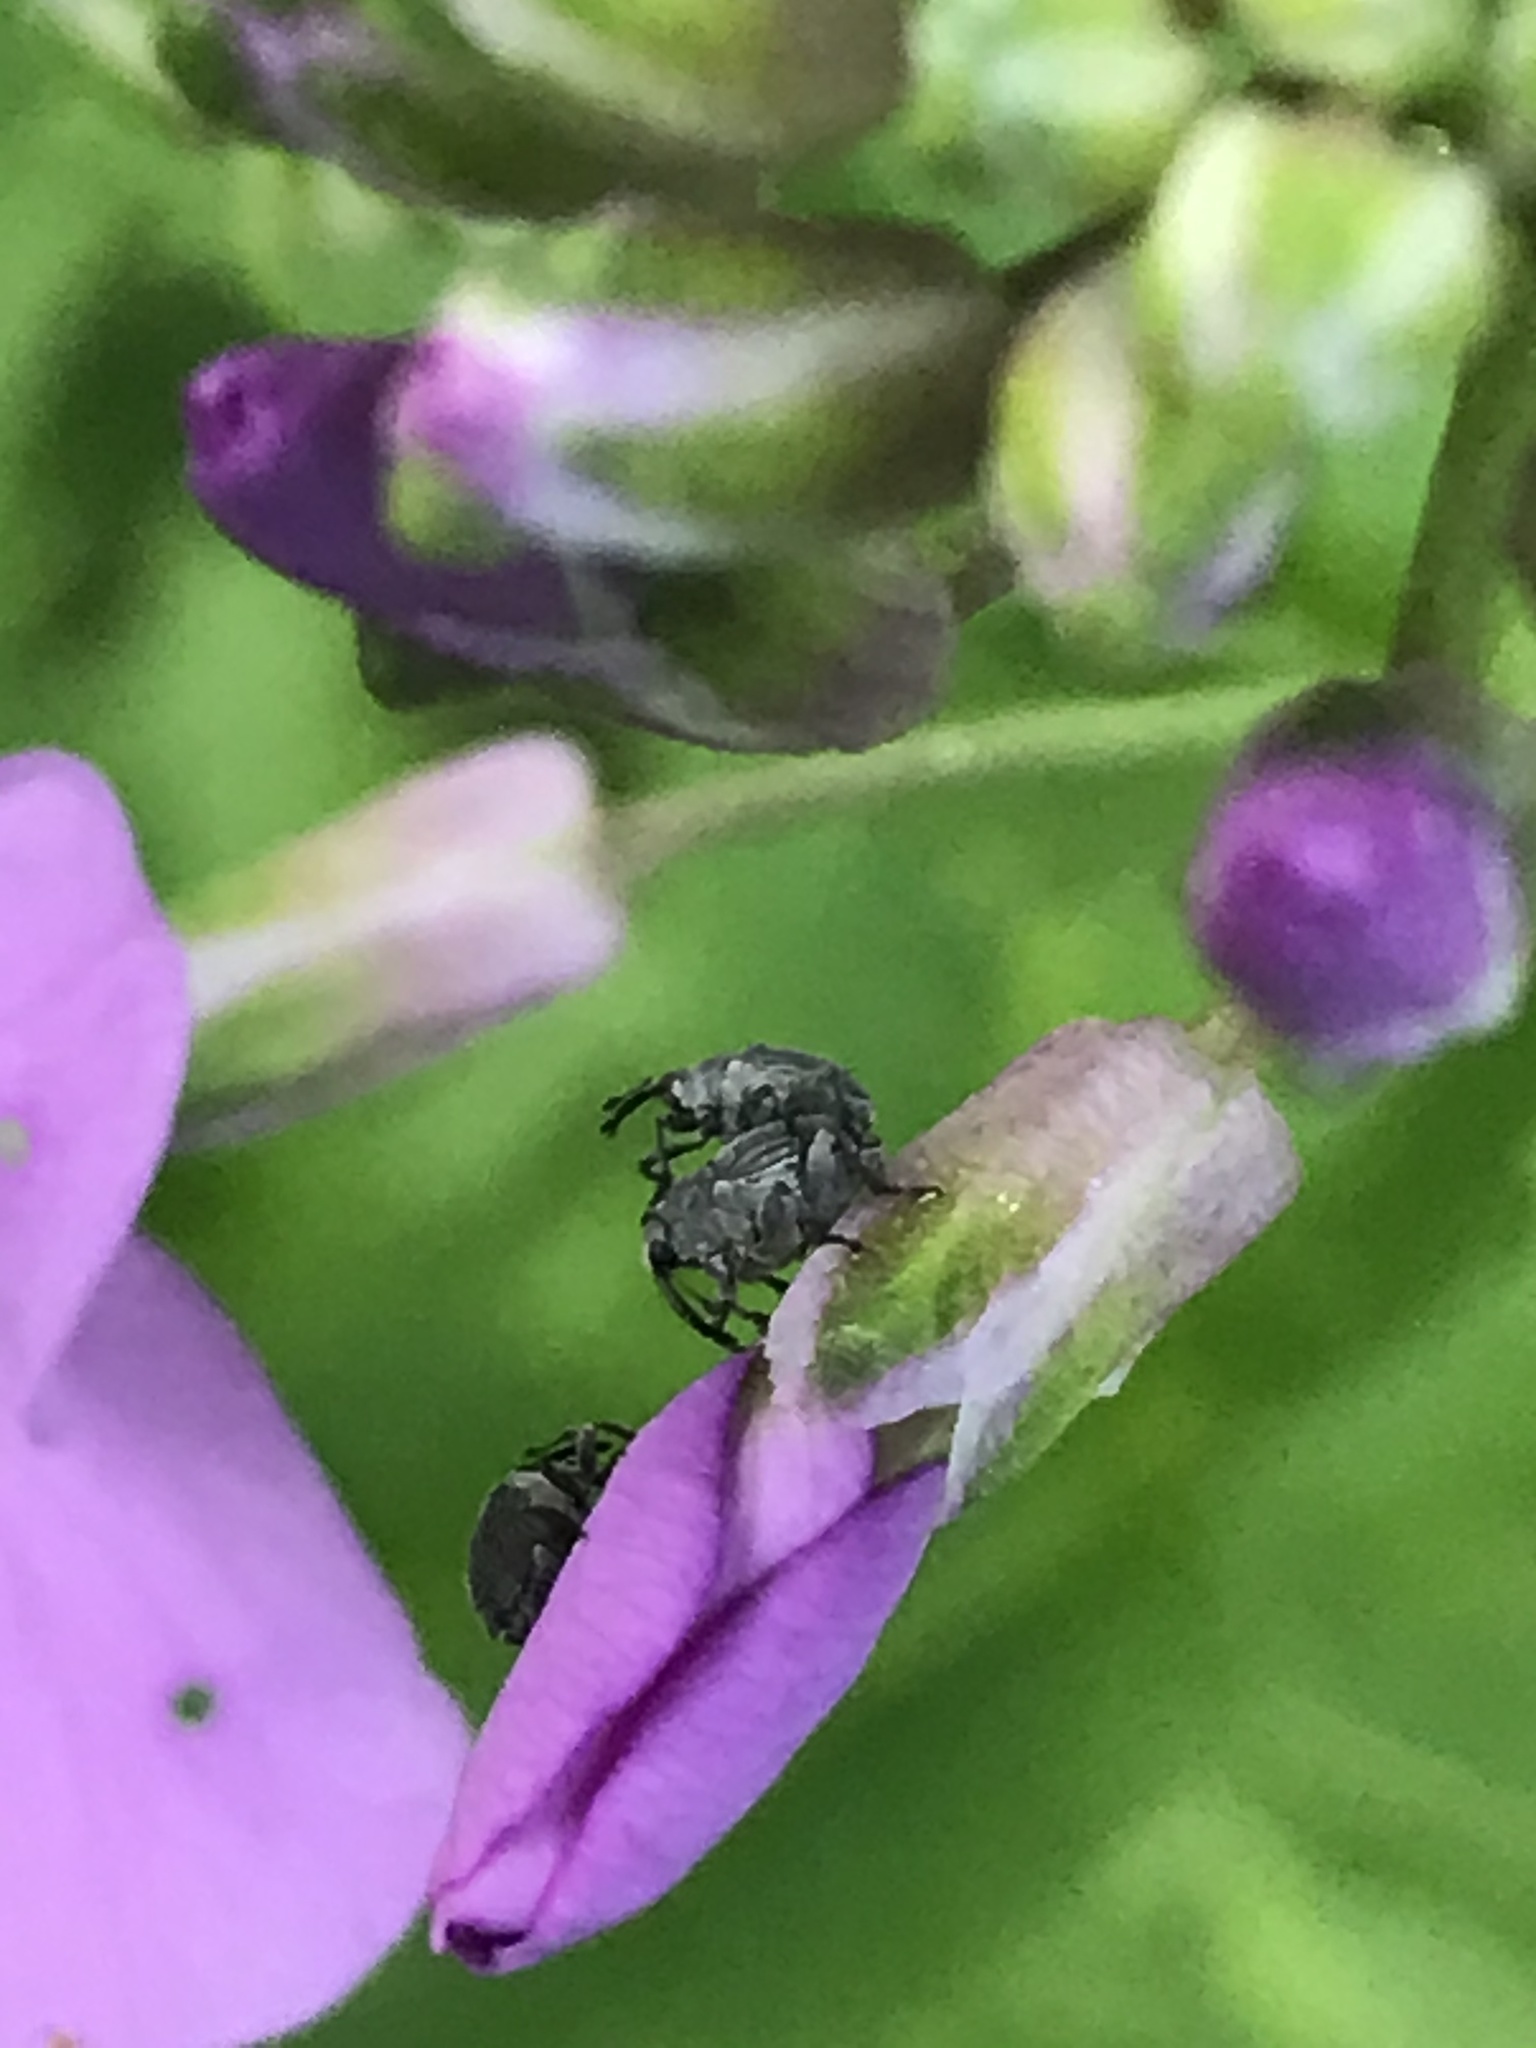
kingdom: Animalia
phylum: Arthropoda
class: Insecta
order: Coleoptera
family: Curculionidae
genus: Ceutorhynchus
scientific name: Ceutorhynchus inaffectatus
